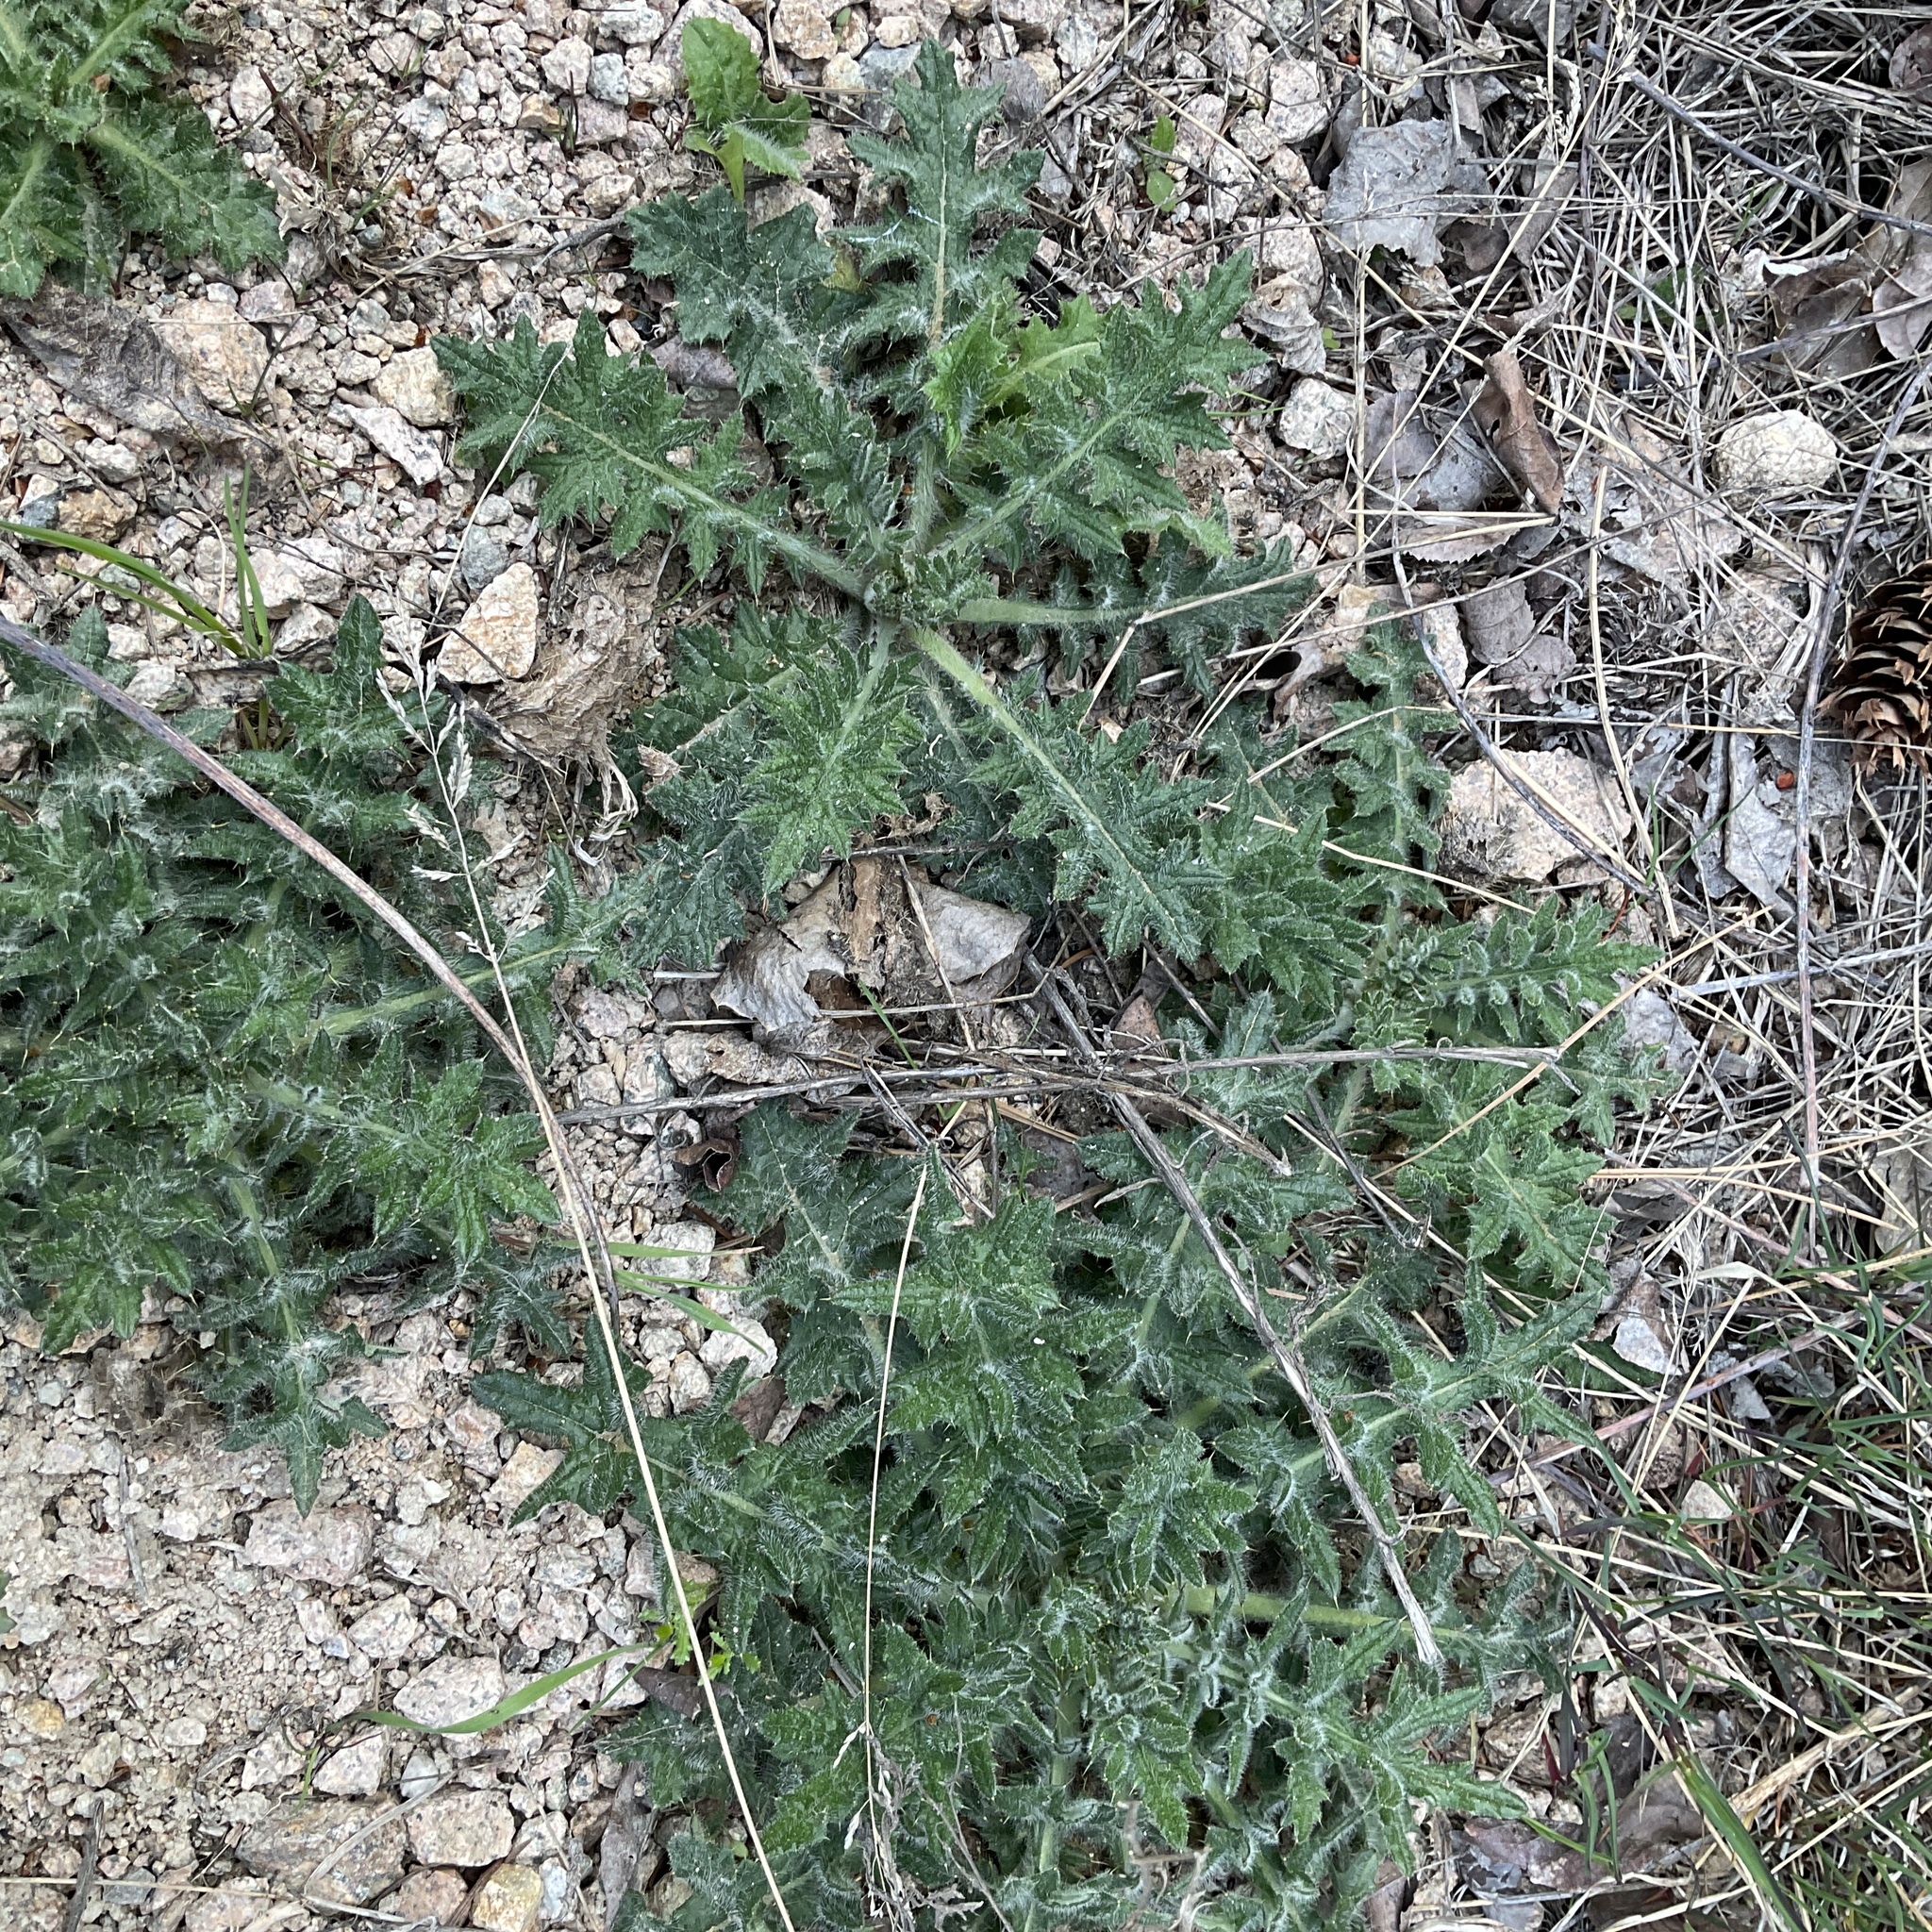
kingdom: Plantae
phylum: Tracheophyta
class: Magnoliopsida
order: Asterales
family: Asteraceae
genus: Cirsium
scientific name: Cirsium vulgare
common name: Bull thistle
